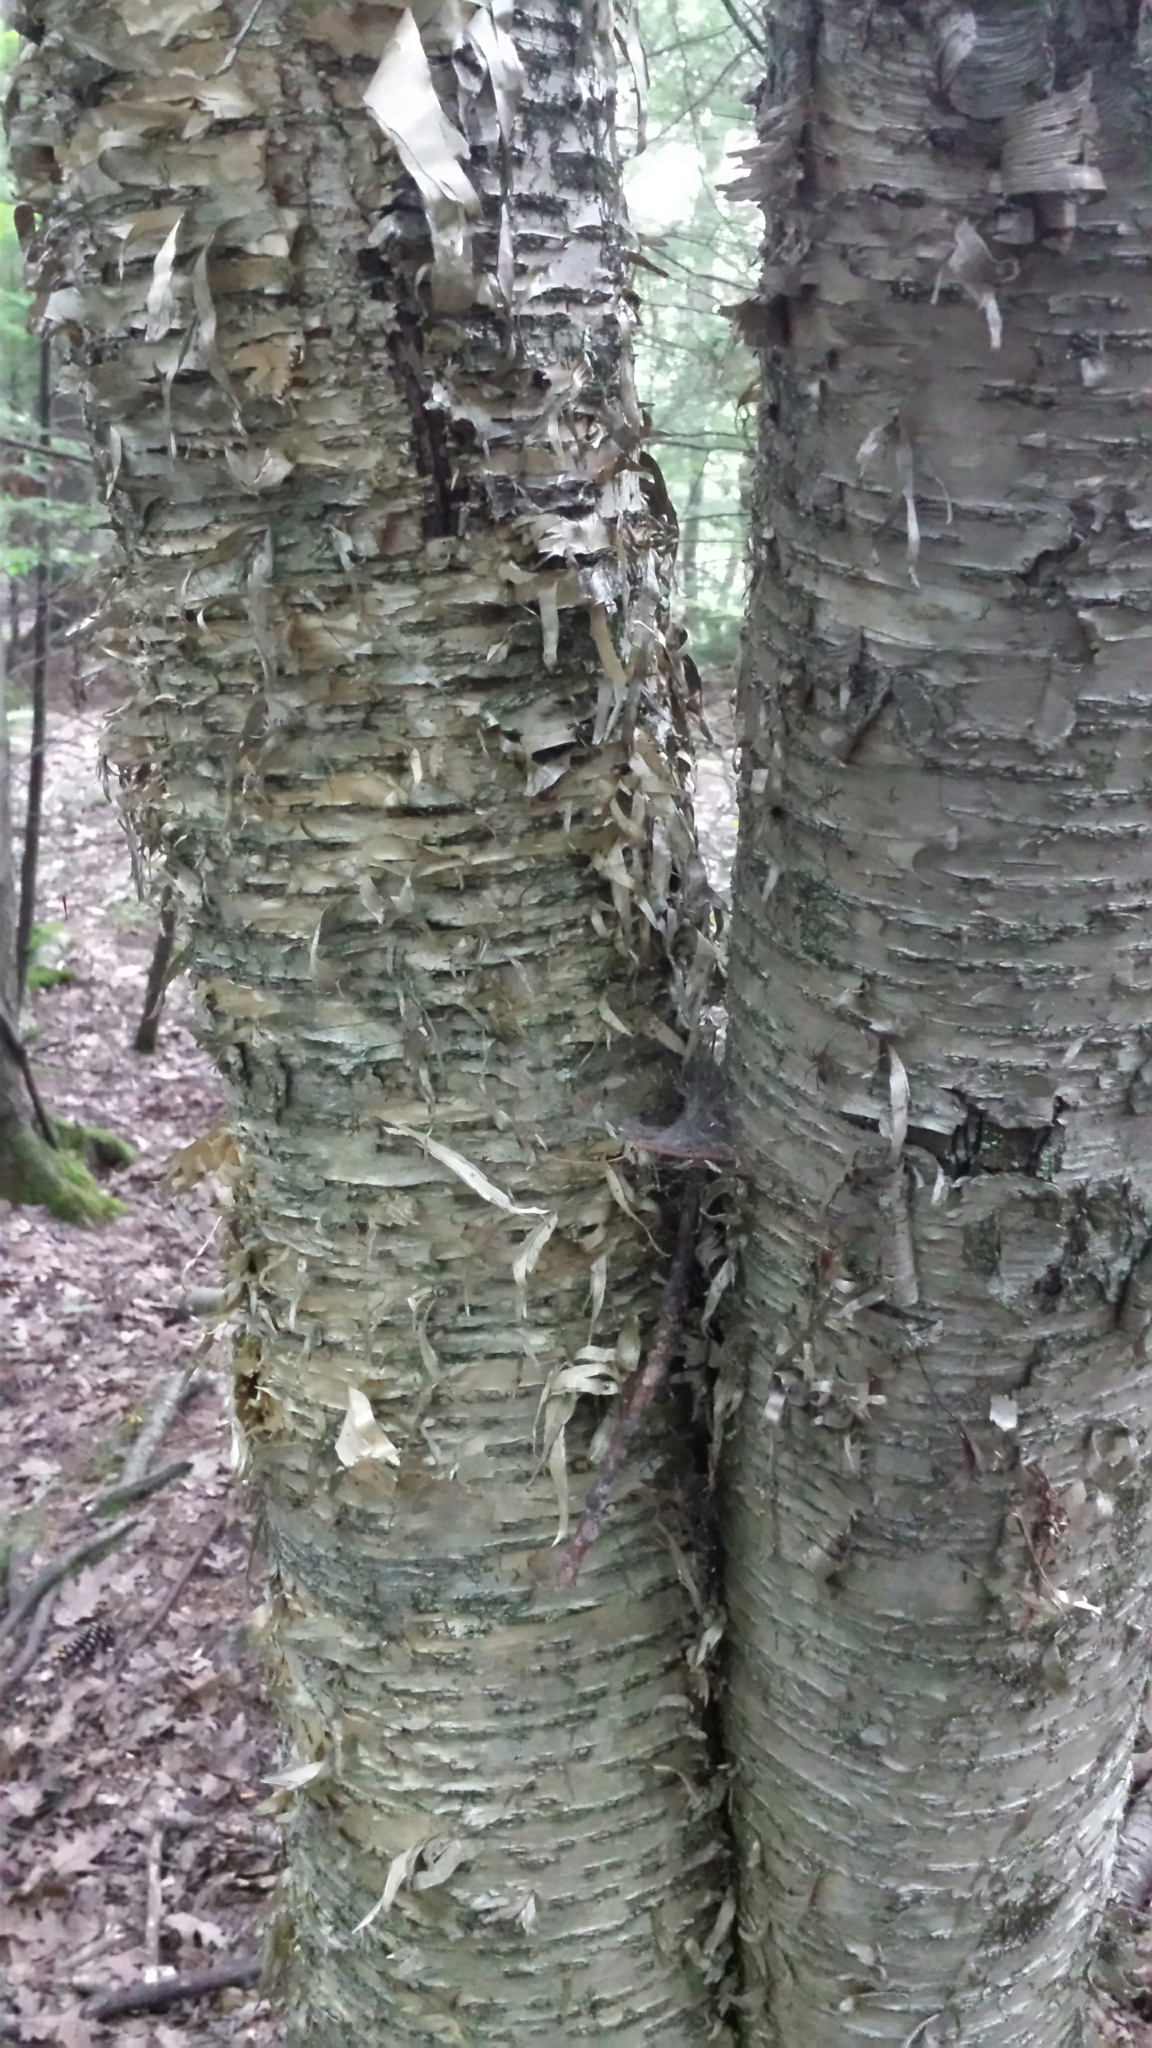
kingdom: Plantae
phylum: Tracheophyta
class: Magnoliopsida
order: Fagales
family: Betulaceae
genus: Betula
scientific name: Betula alleghaniensis
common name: Yellow birch
